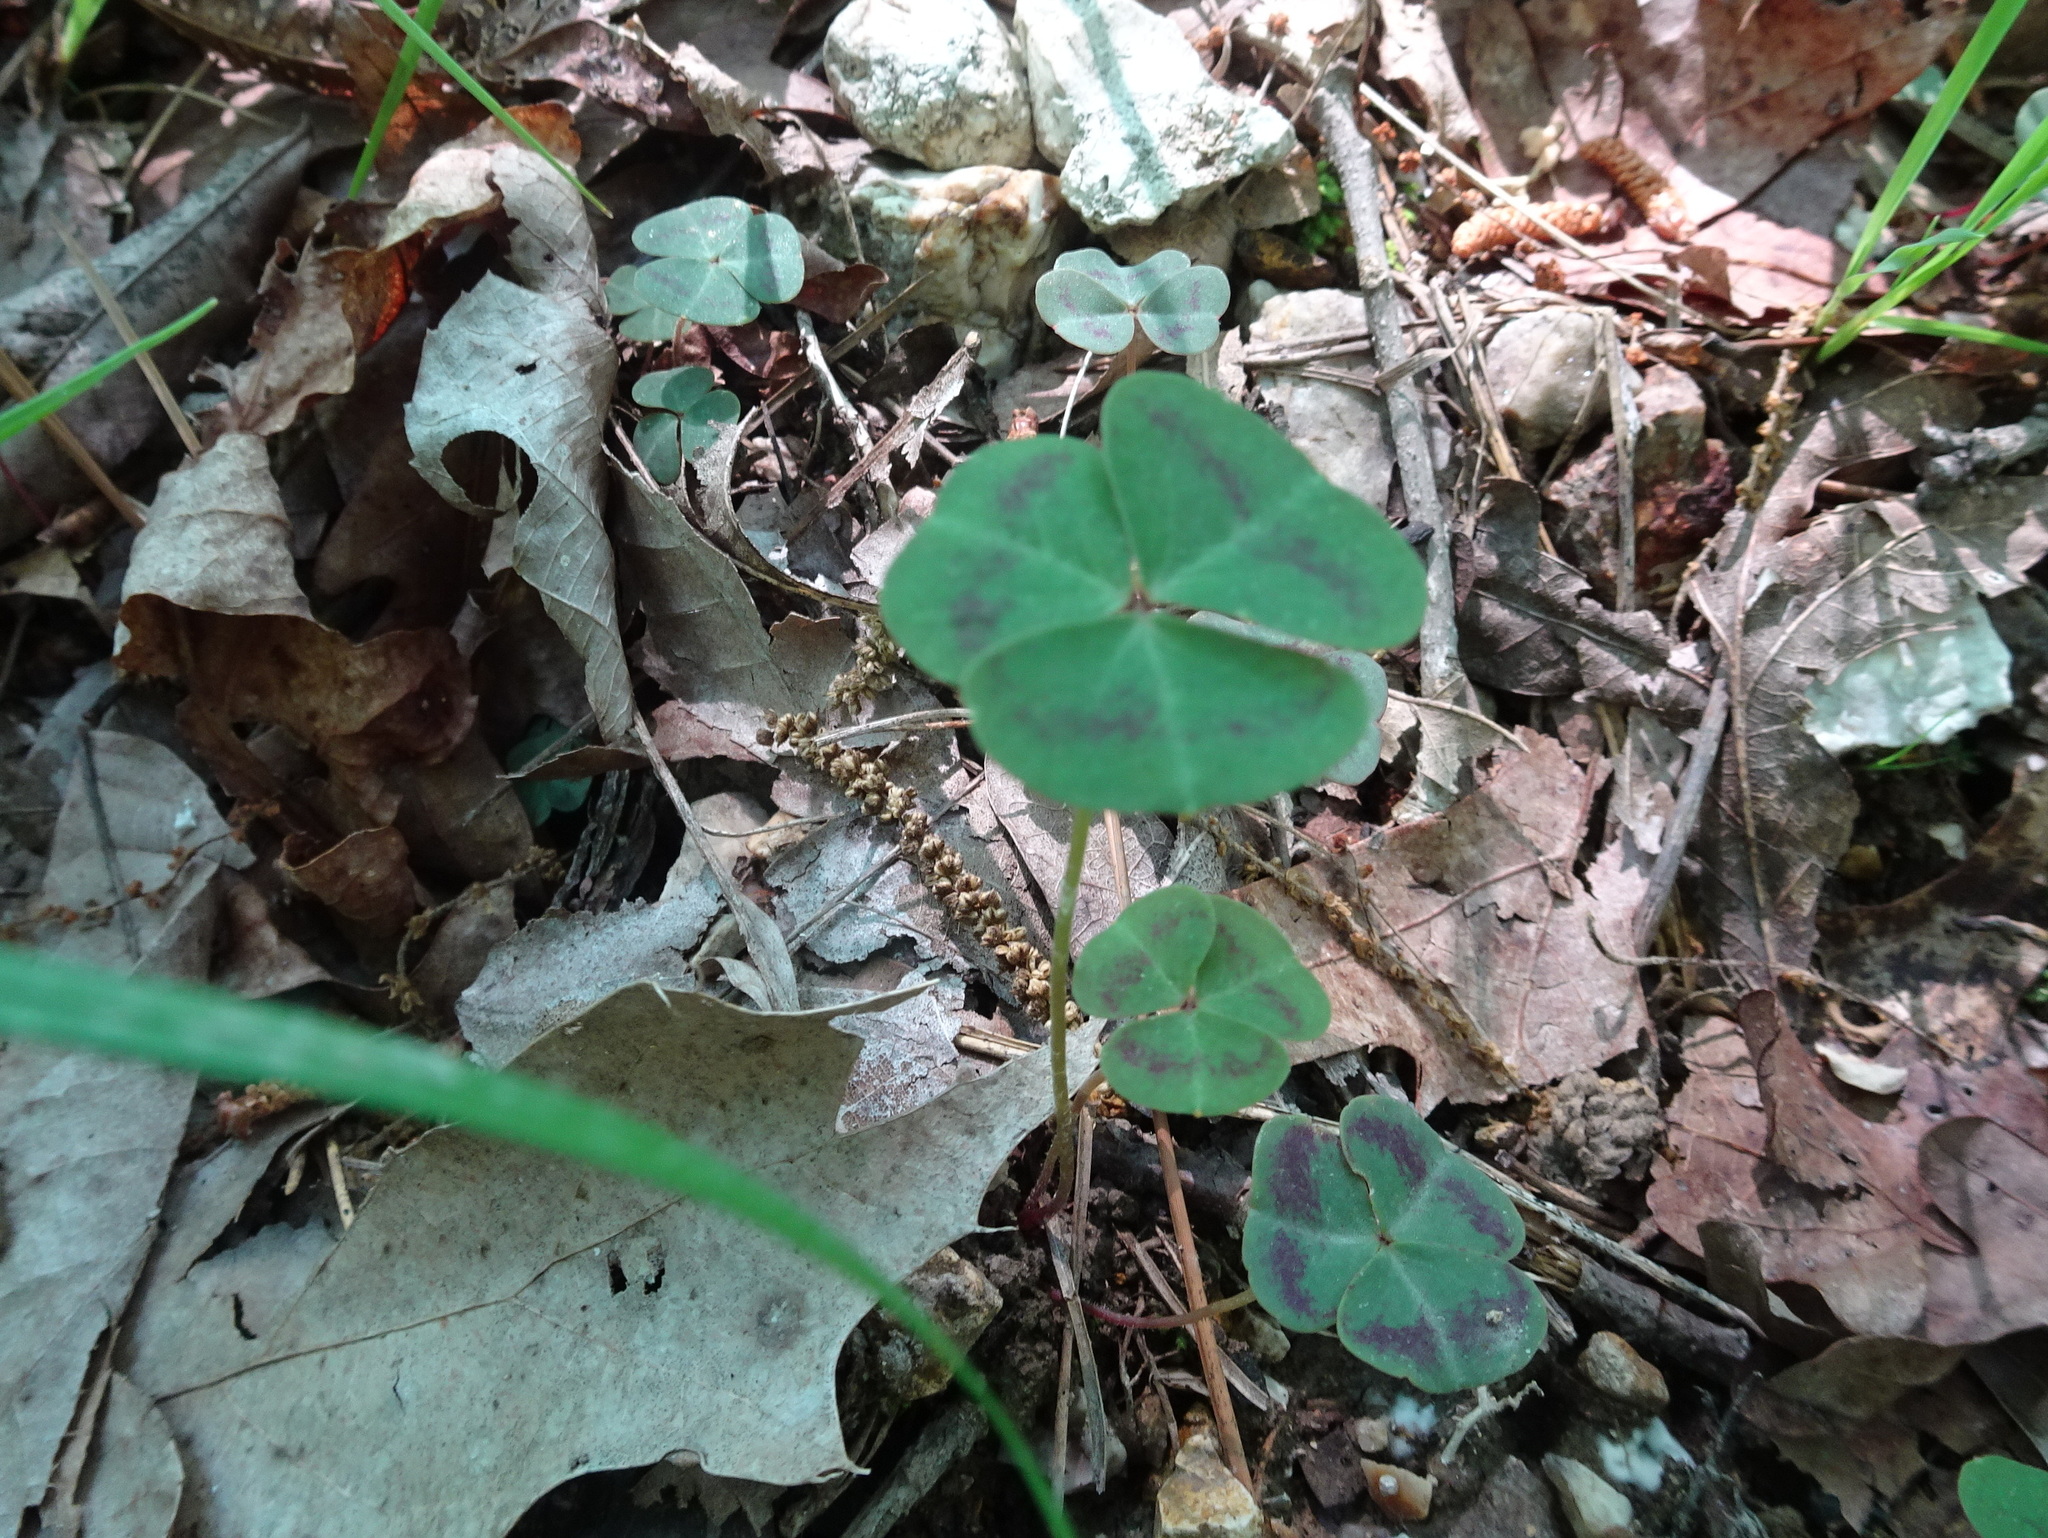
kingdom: Plantae
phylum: Tracheophyta
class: Magnoliopsida
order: Oxalidales
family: Oxalidaceae
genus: Oxalis
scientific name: Oxalis violacea
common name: Violet wood-sorrel
